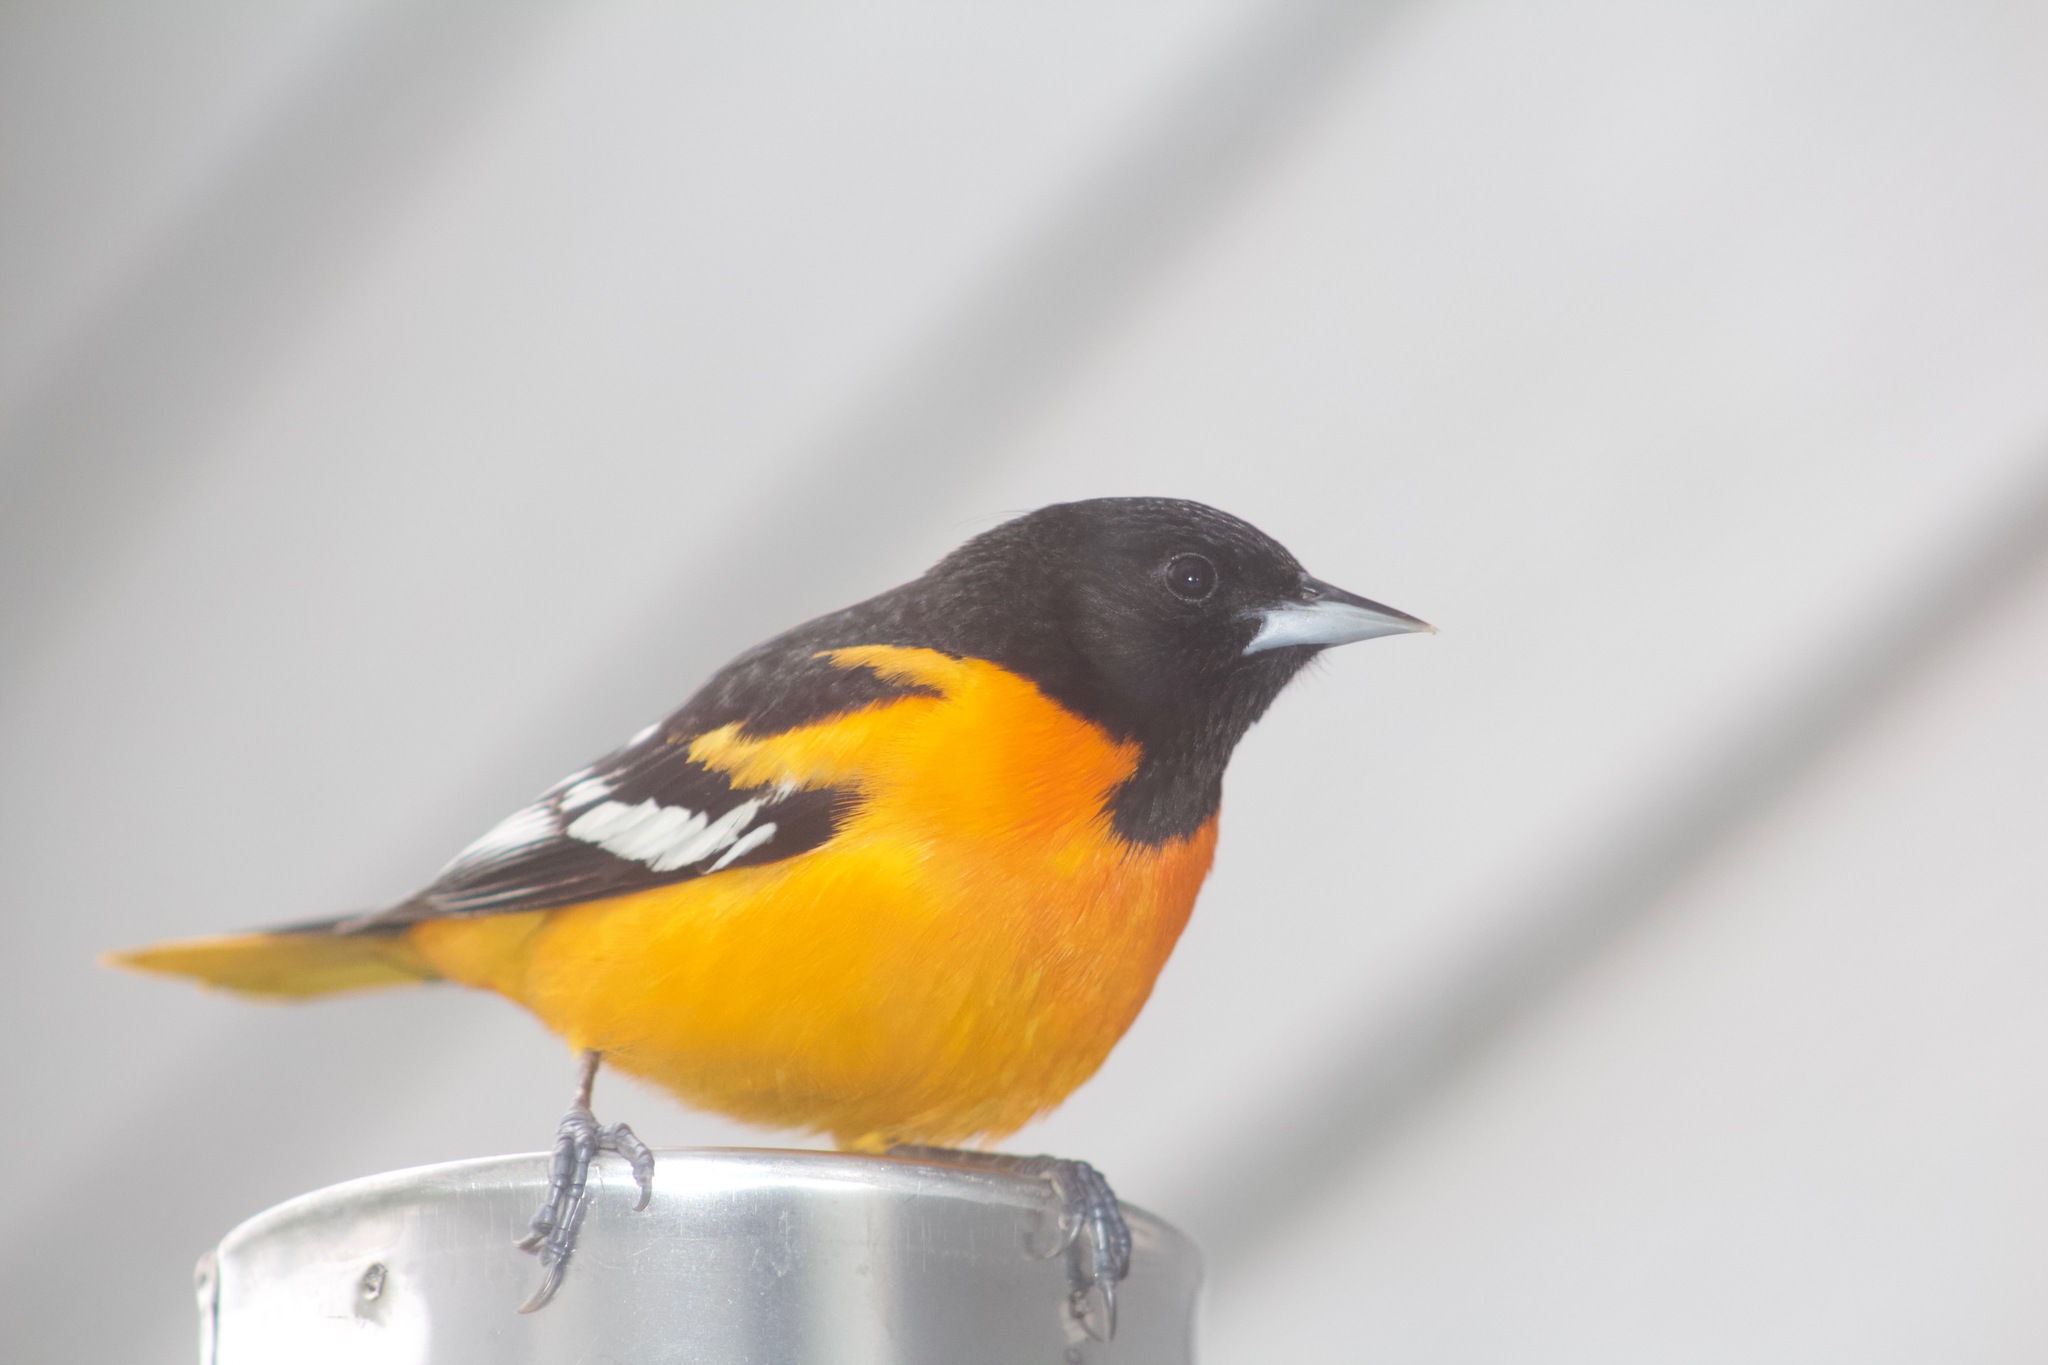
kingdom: Animalia
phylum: Chordata
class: Aves
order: Passeriformes
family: Icteridae
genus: Icterus
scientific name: Icterus galbula
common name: Baltimore oriole
